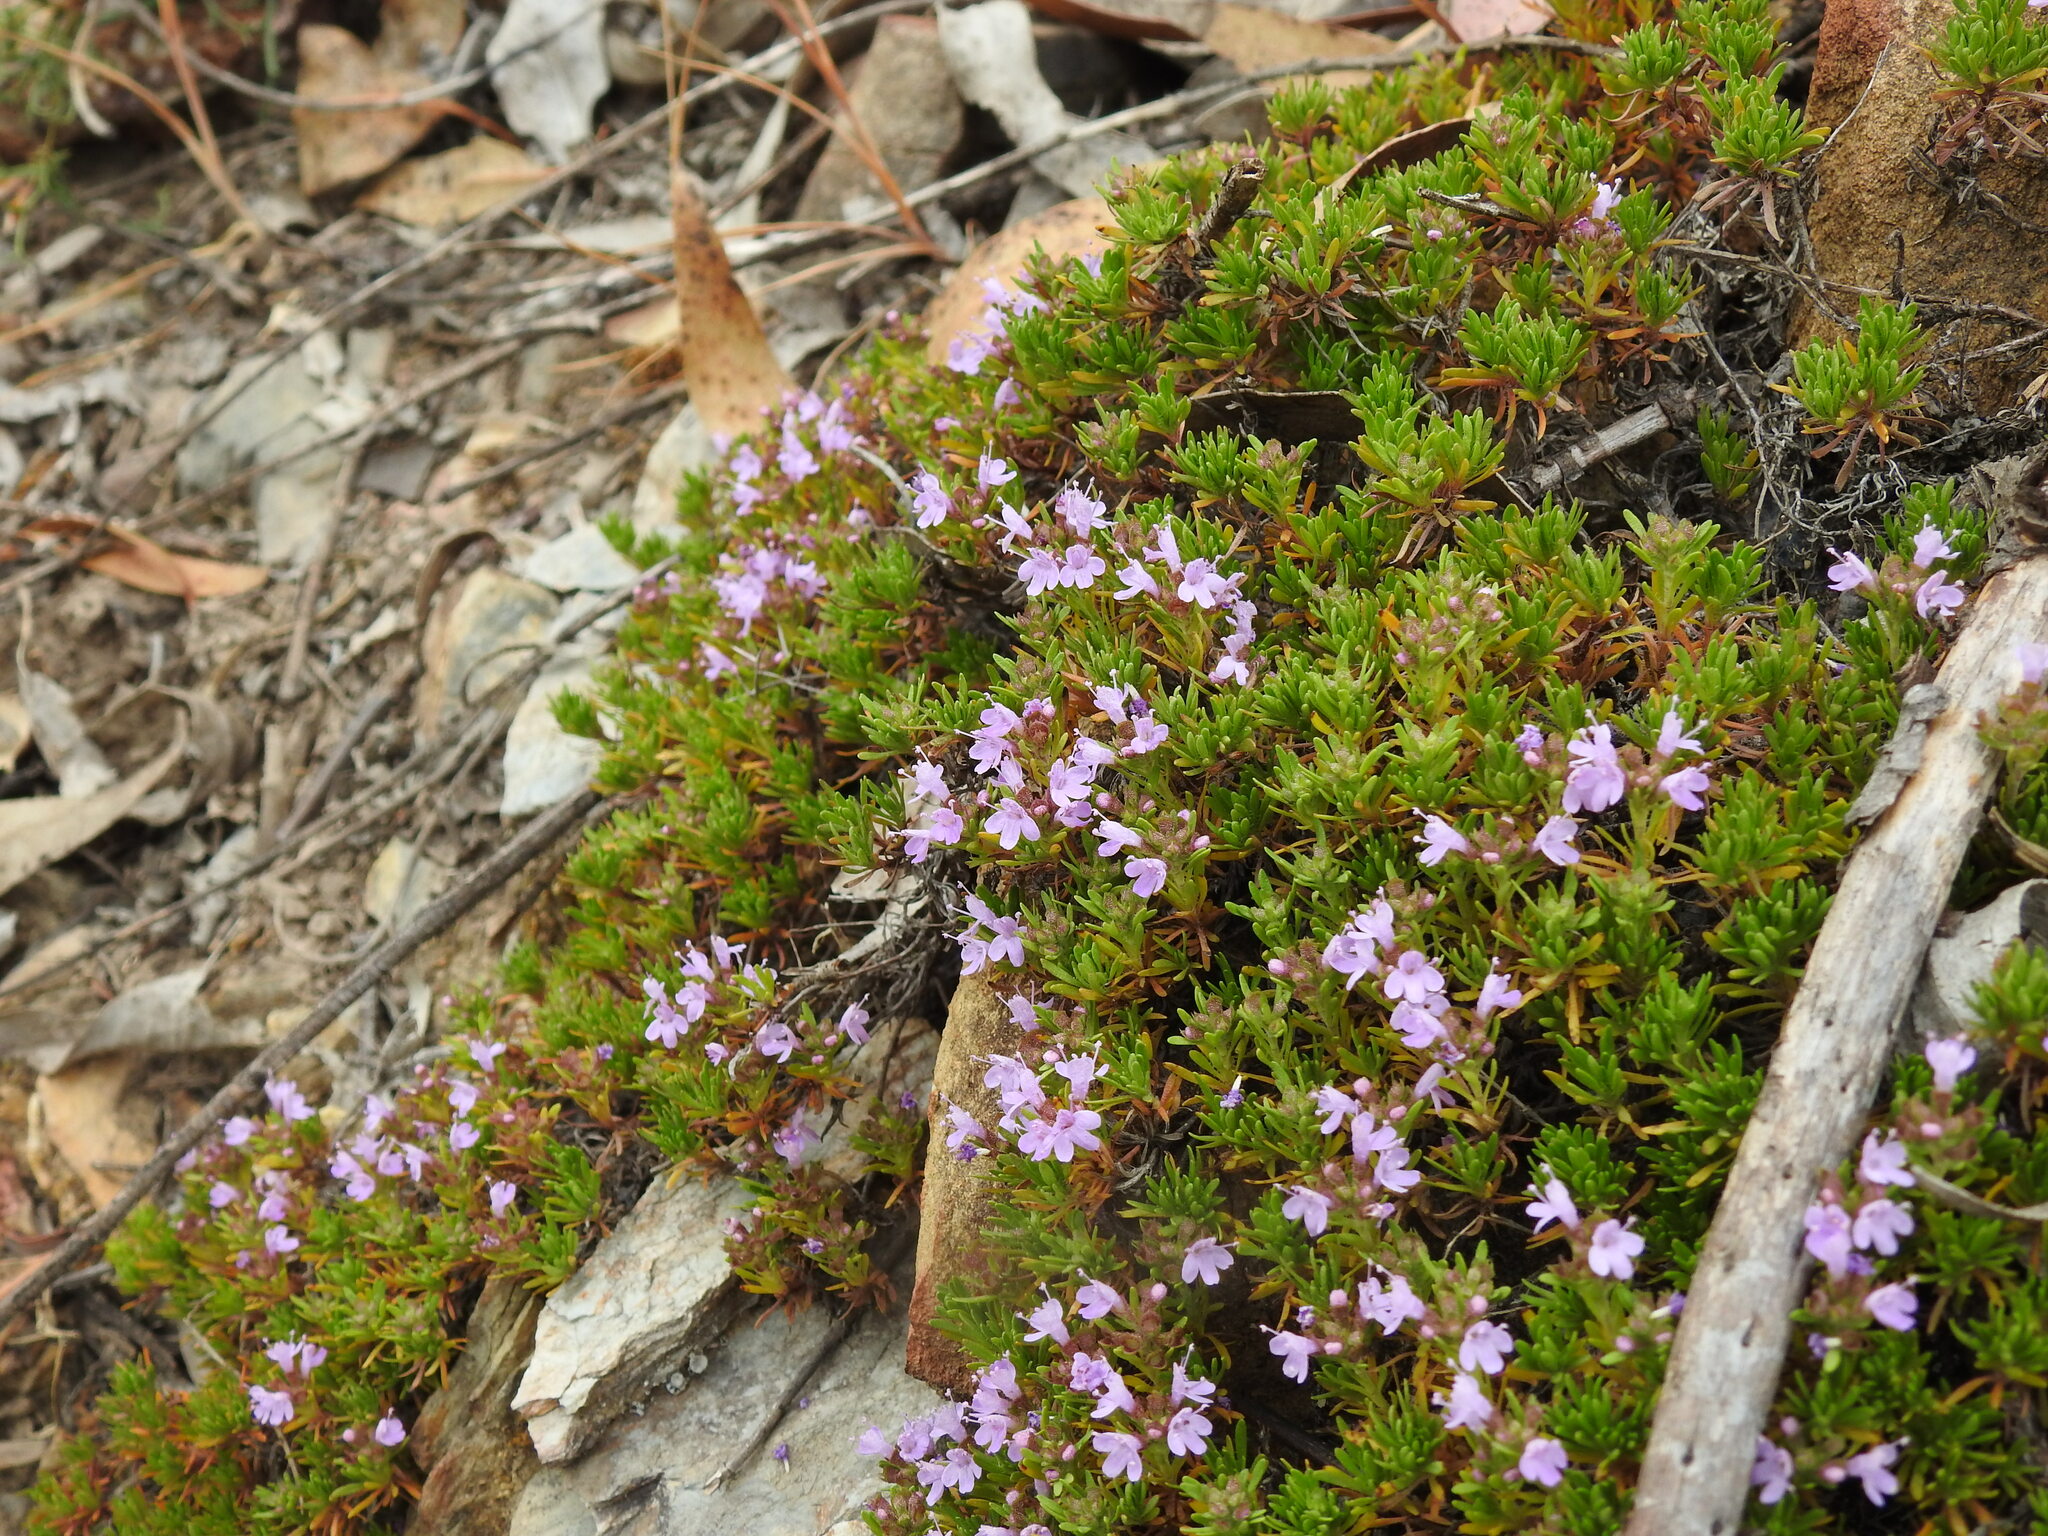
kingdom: Plantae
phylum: Tracheophyta
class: Magnoliopsida
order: Lamiales
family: Lamiaceae
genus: Thymus
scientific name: Thymus caespititius
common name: Azores thyme
